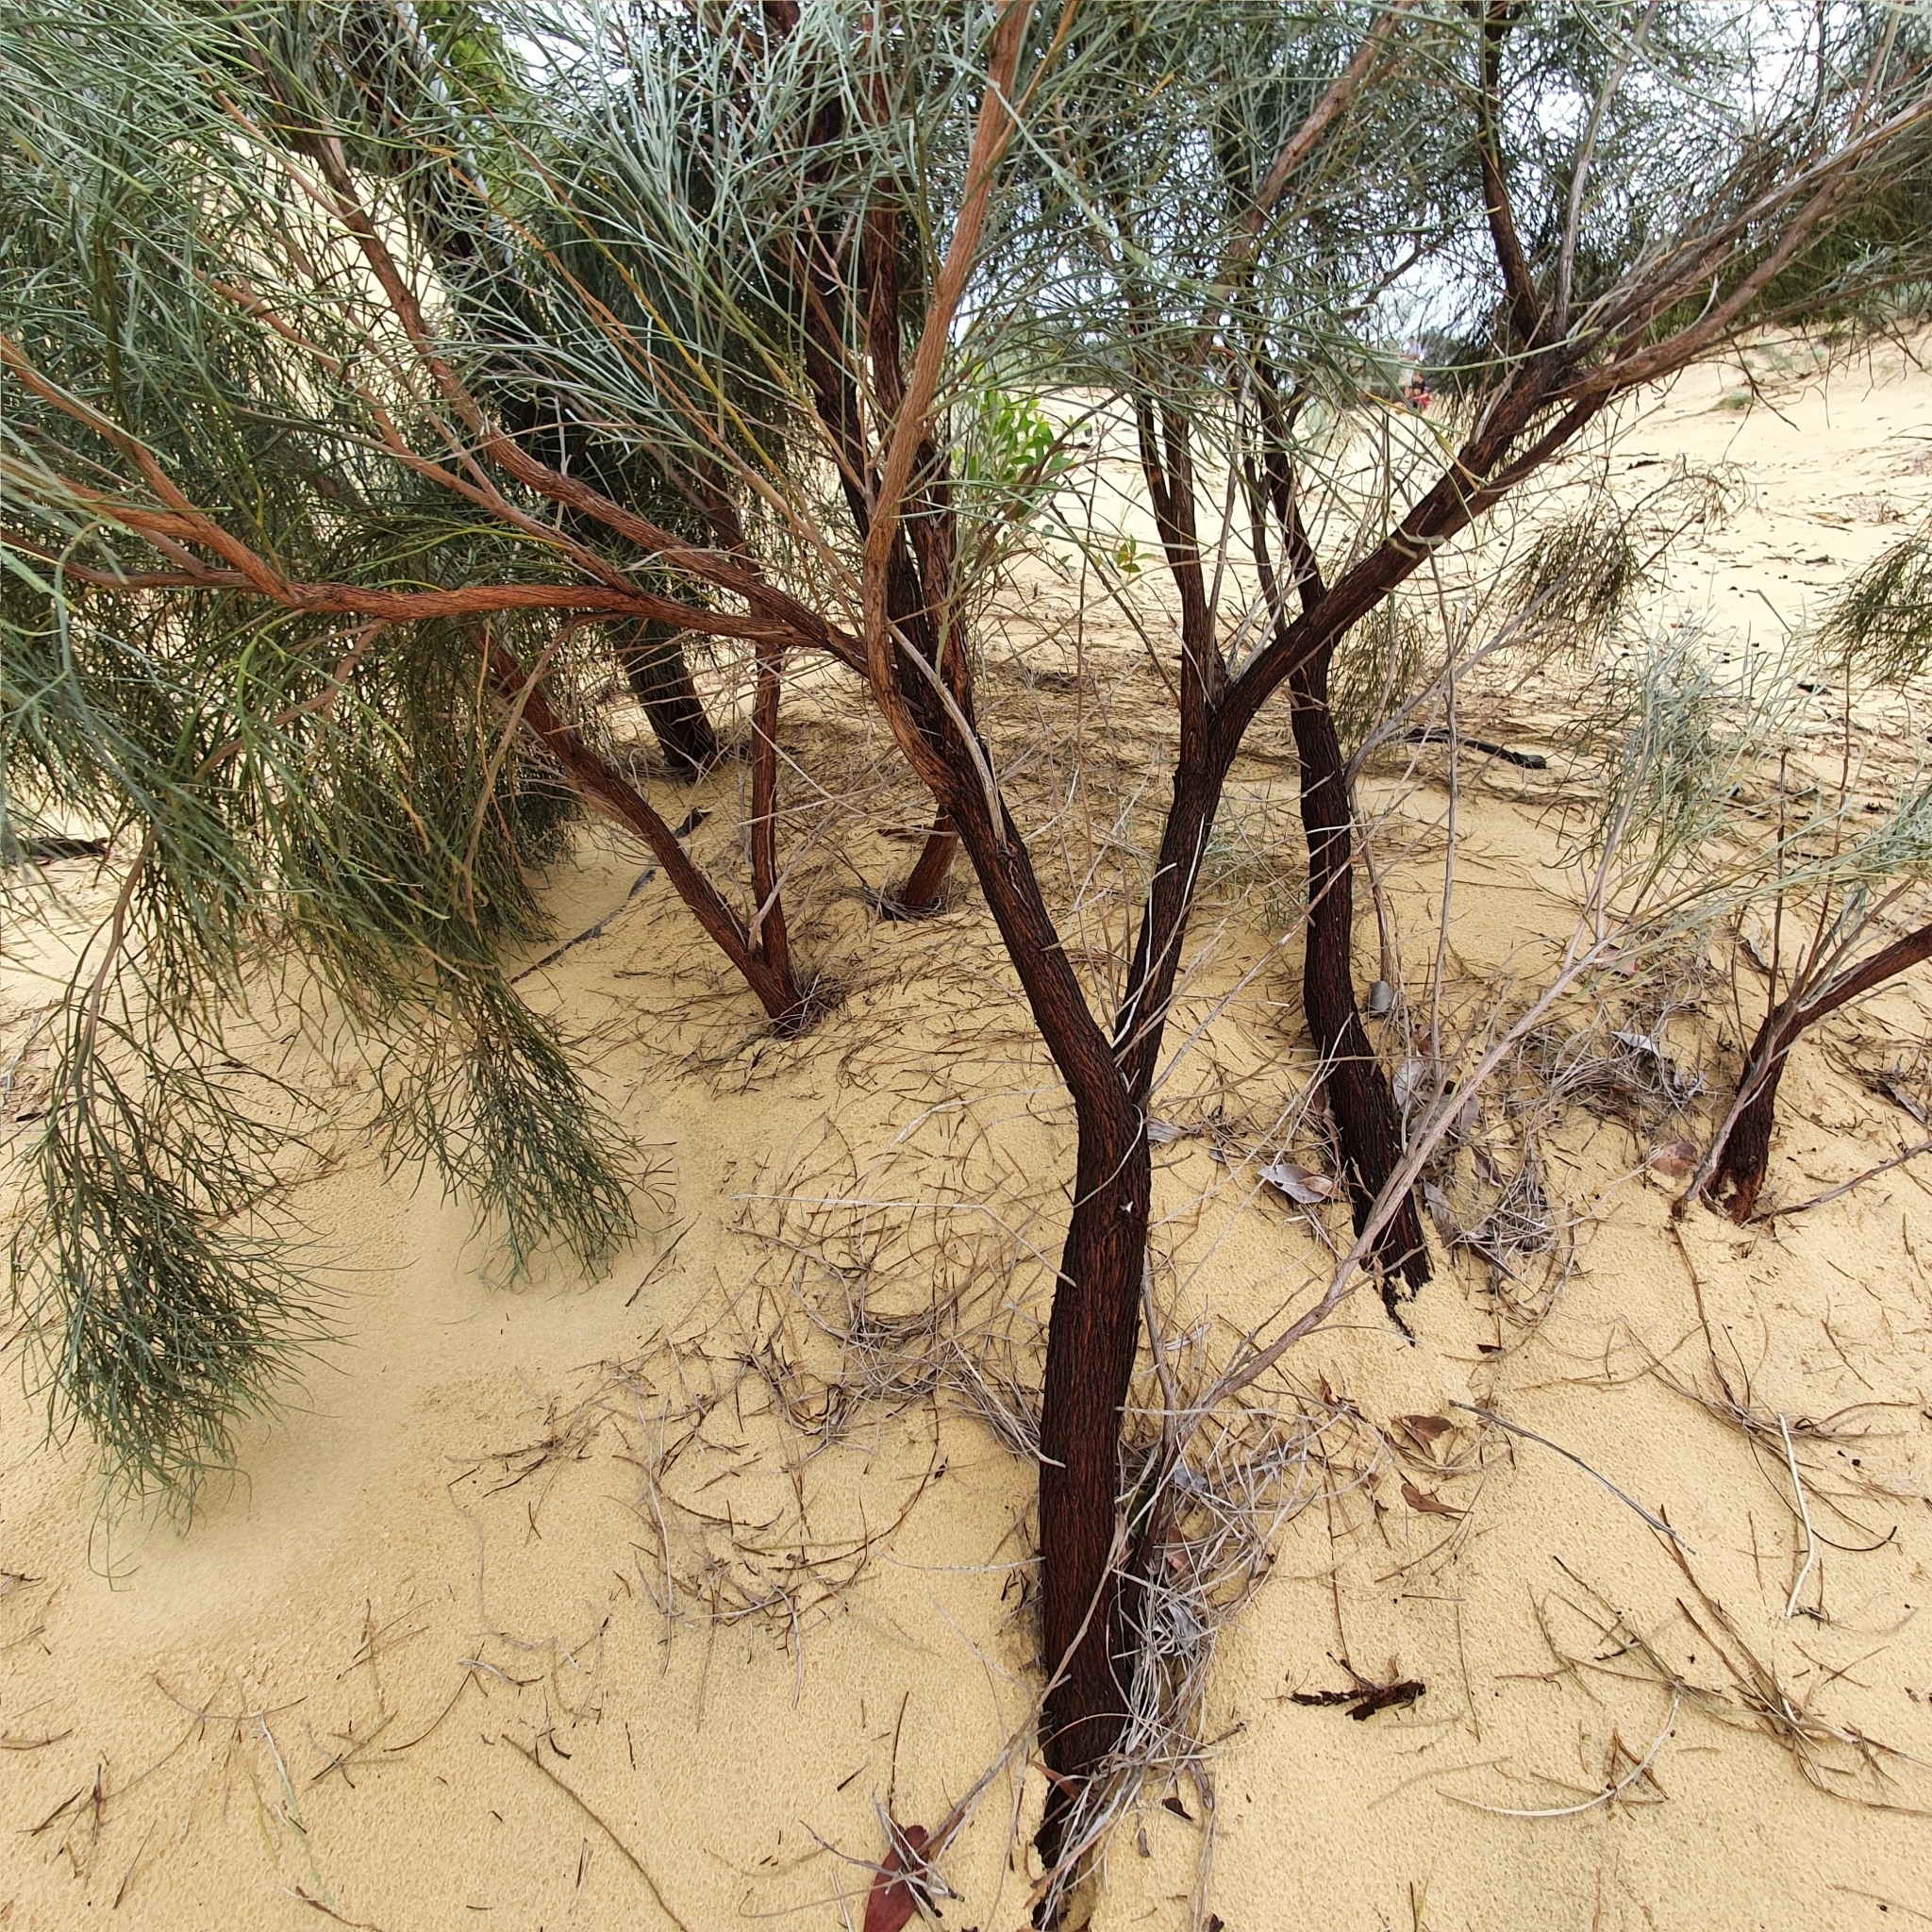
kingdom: Plantae
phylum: Tracheophyta
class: Magnoliopsida
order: Fabales
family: Fabaceae
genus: Jacksonia
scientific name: Jacksonia scoparia
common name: Dogwood
